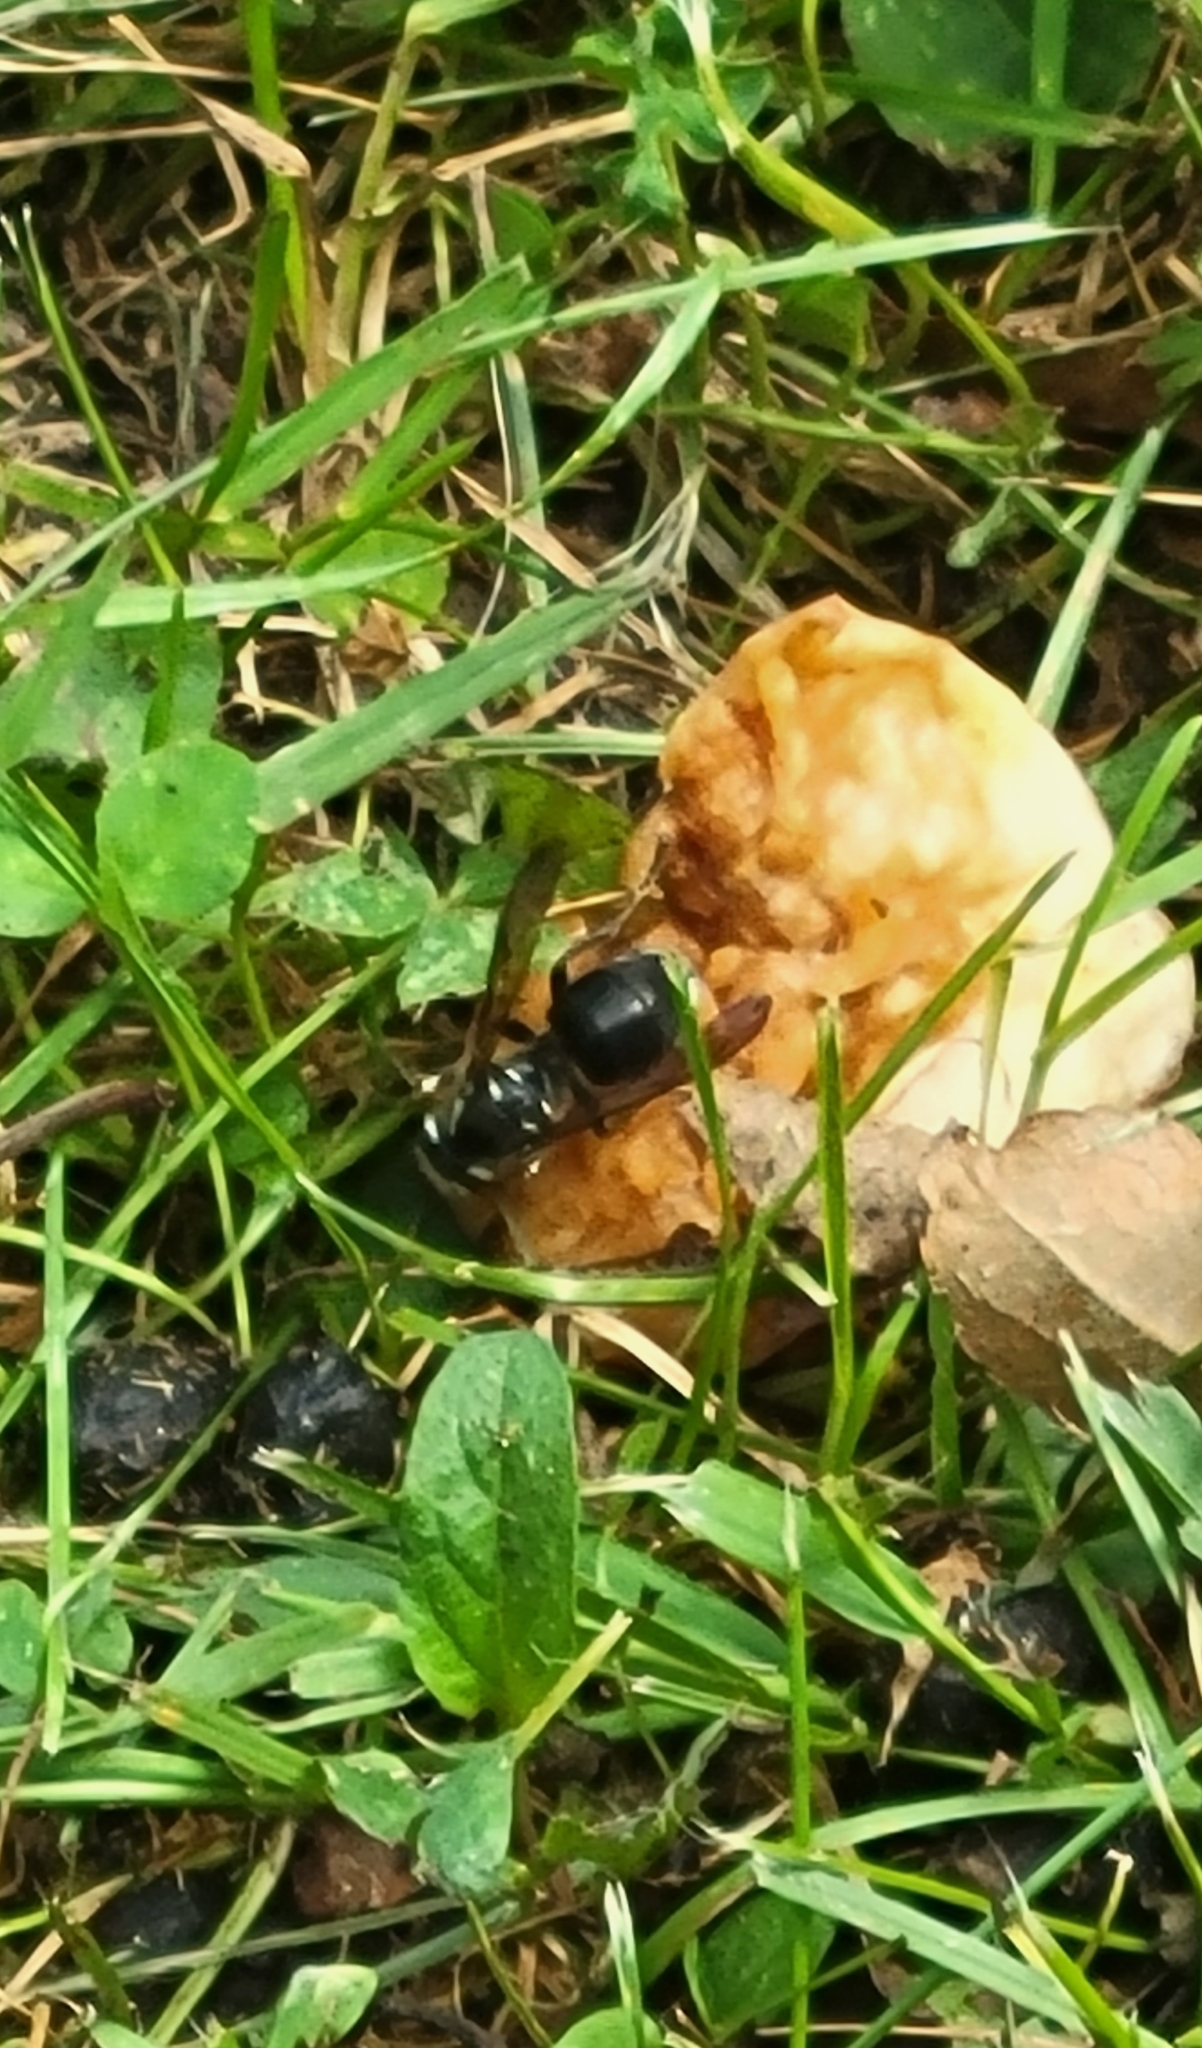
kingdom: Animalia
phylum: Arthropoda
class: Insecta
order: Hymenoptera
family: Vespidae
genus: Dolichovespula
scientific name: Dolichovespula maculata
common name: Bald-faced hornet
